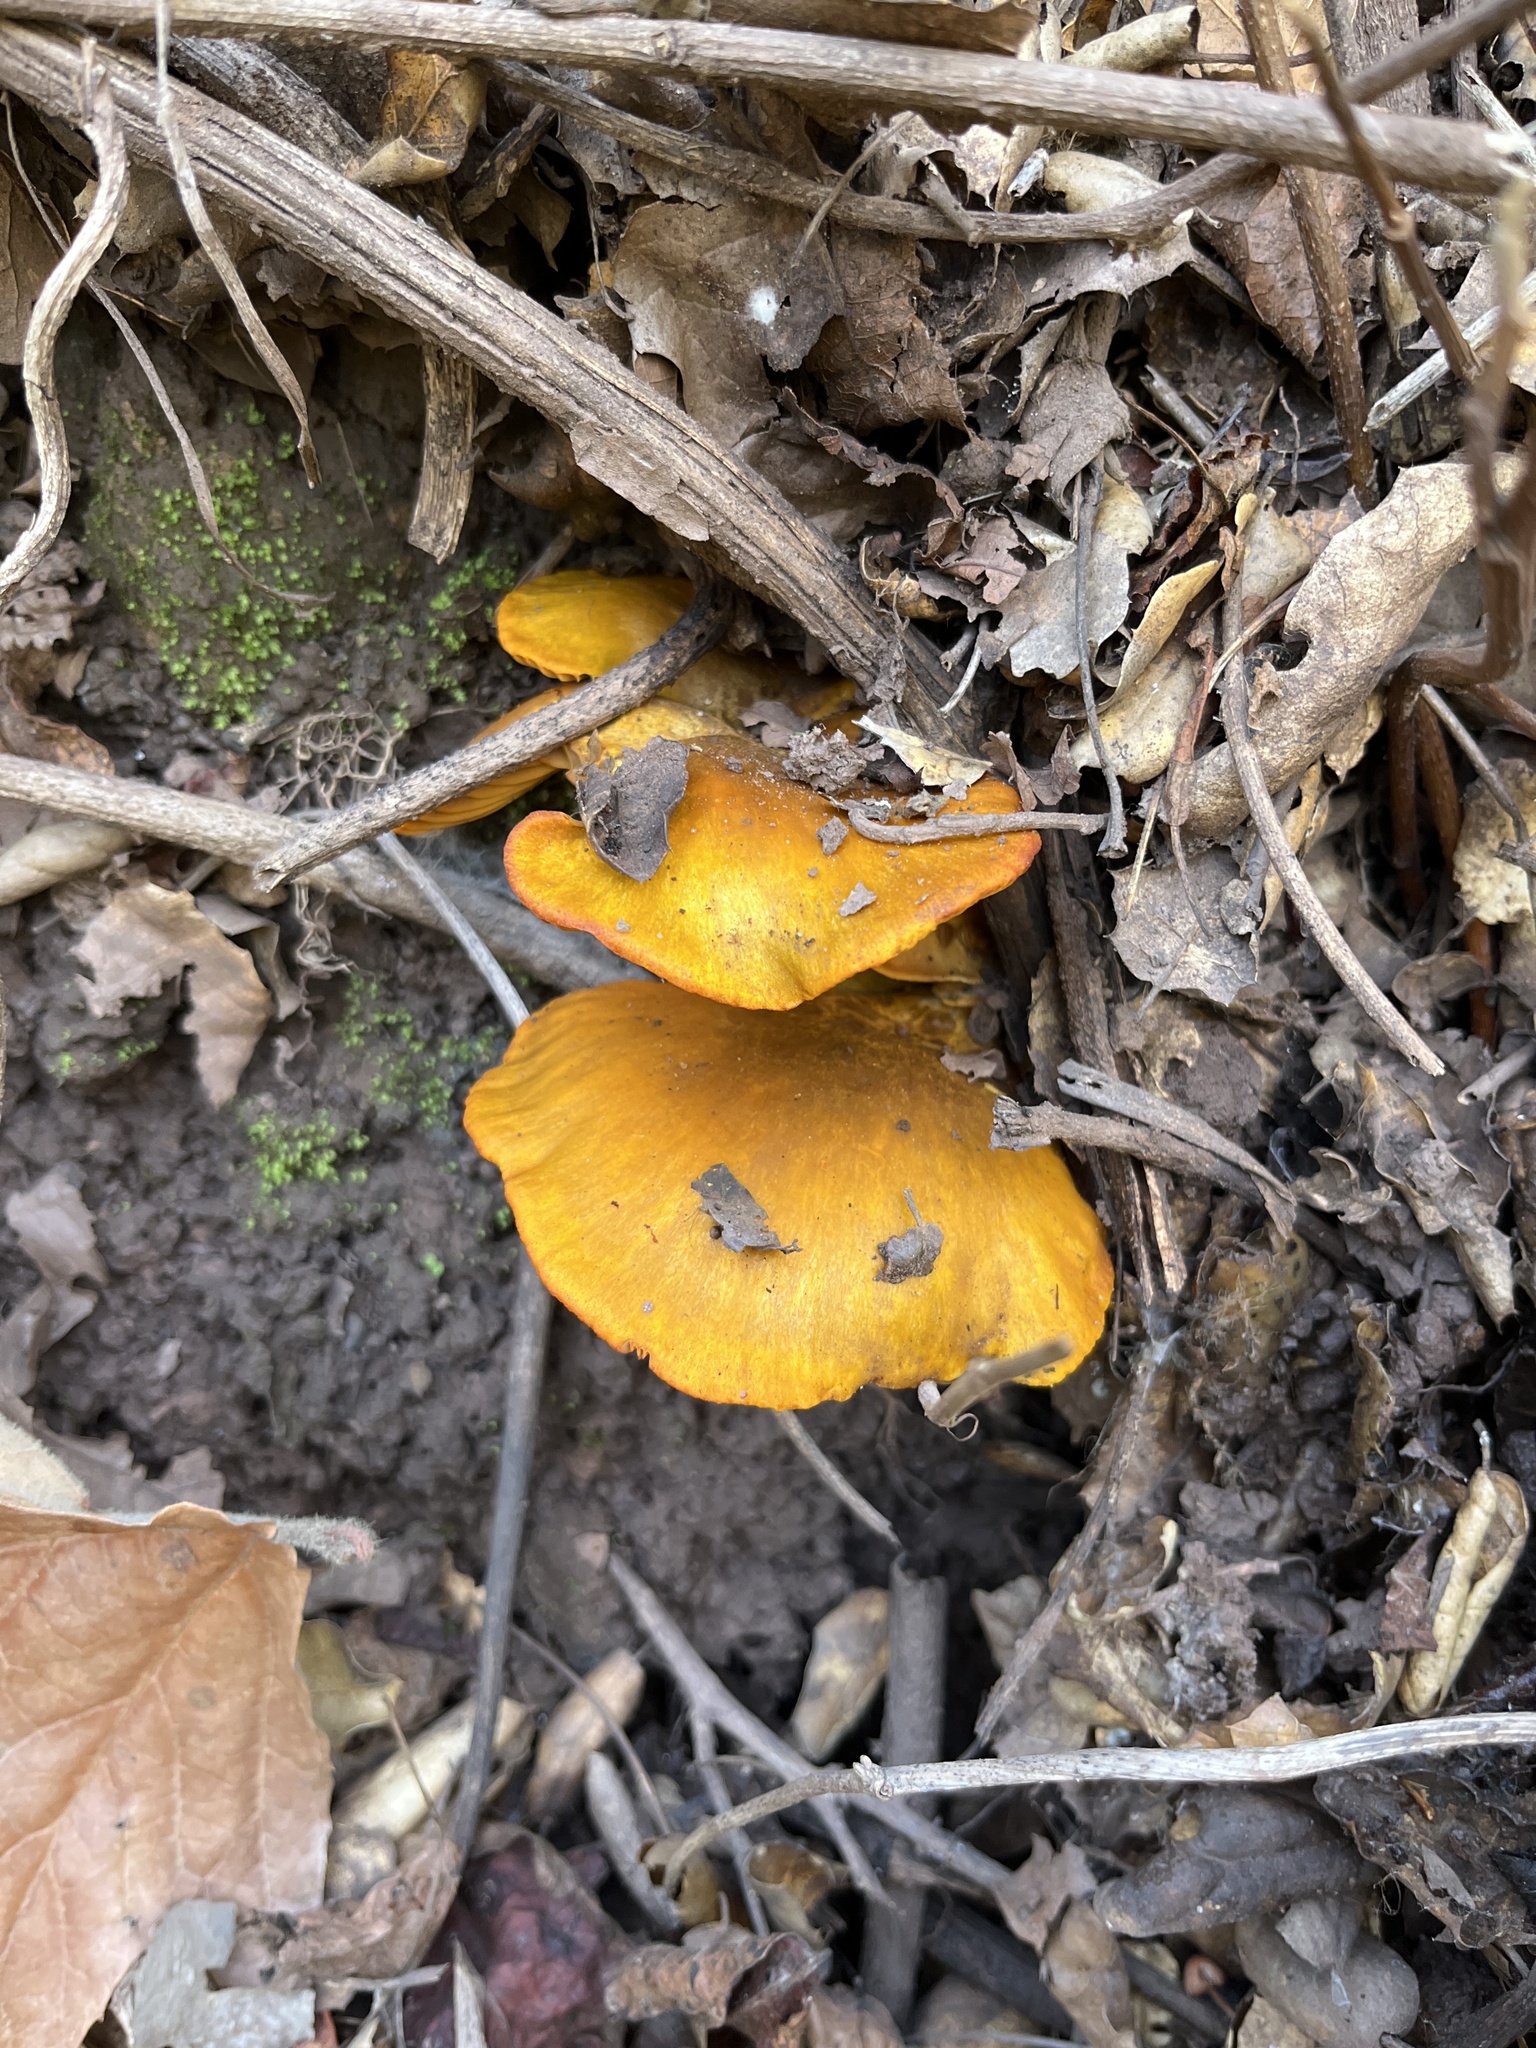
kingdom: Fungi
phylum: Basidiomycota
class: Agaricomycetes
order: Agaricales
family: Omphalotaceae
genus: Omphalotus
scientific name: Omphalotus olivascens
